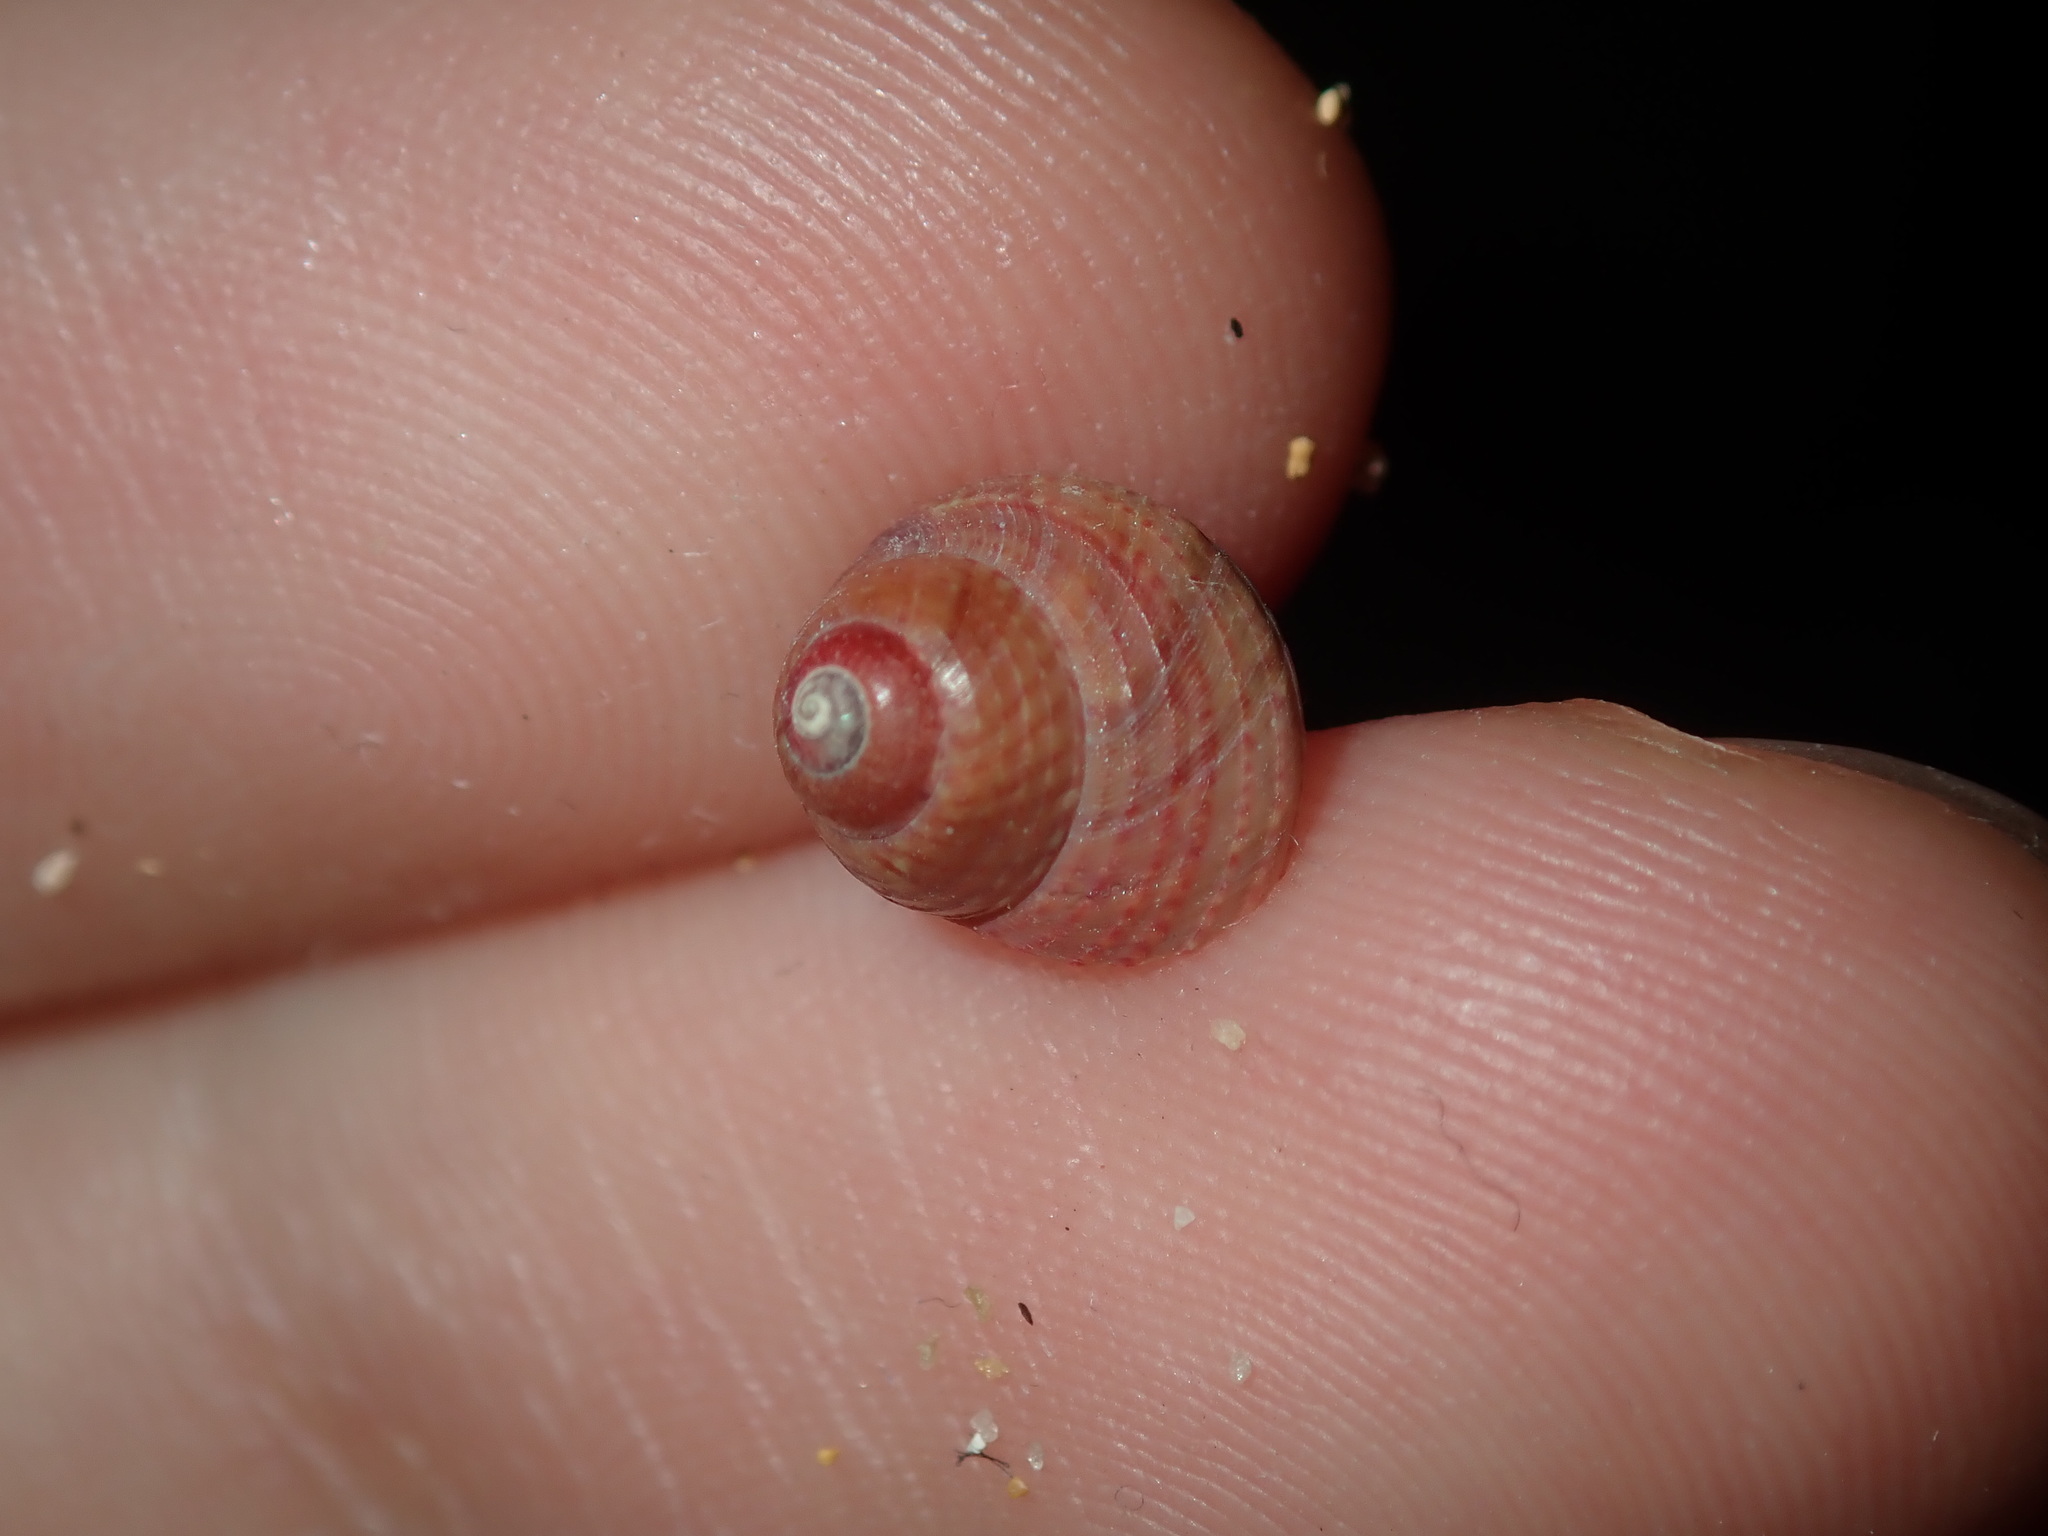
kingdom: Animalia
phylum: Mollusca
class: Gastropoda
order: Trochida
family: Trochidae
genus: Cantharidella
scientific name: Cantharidella picturata
